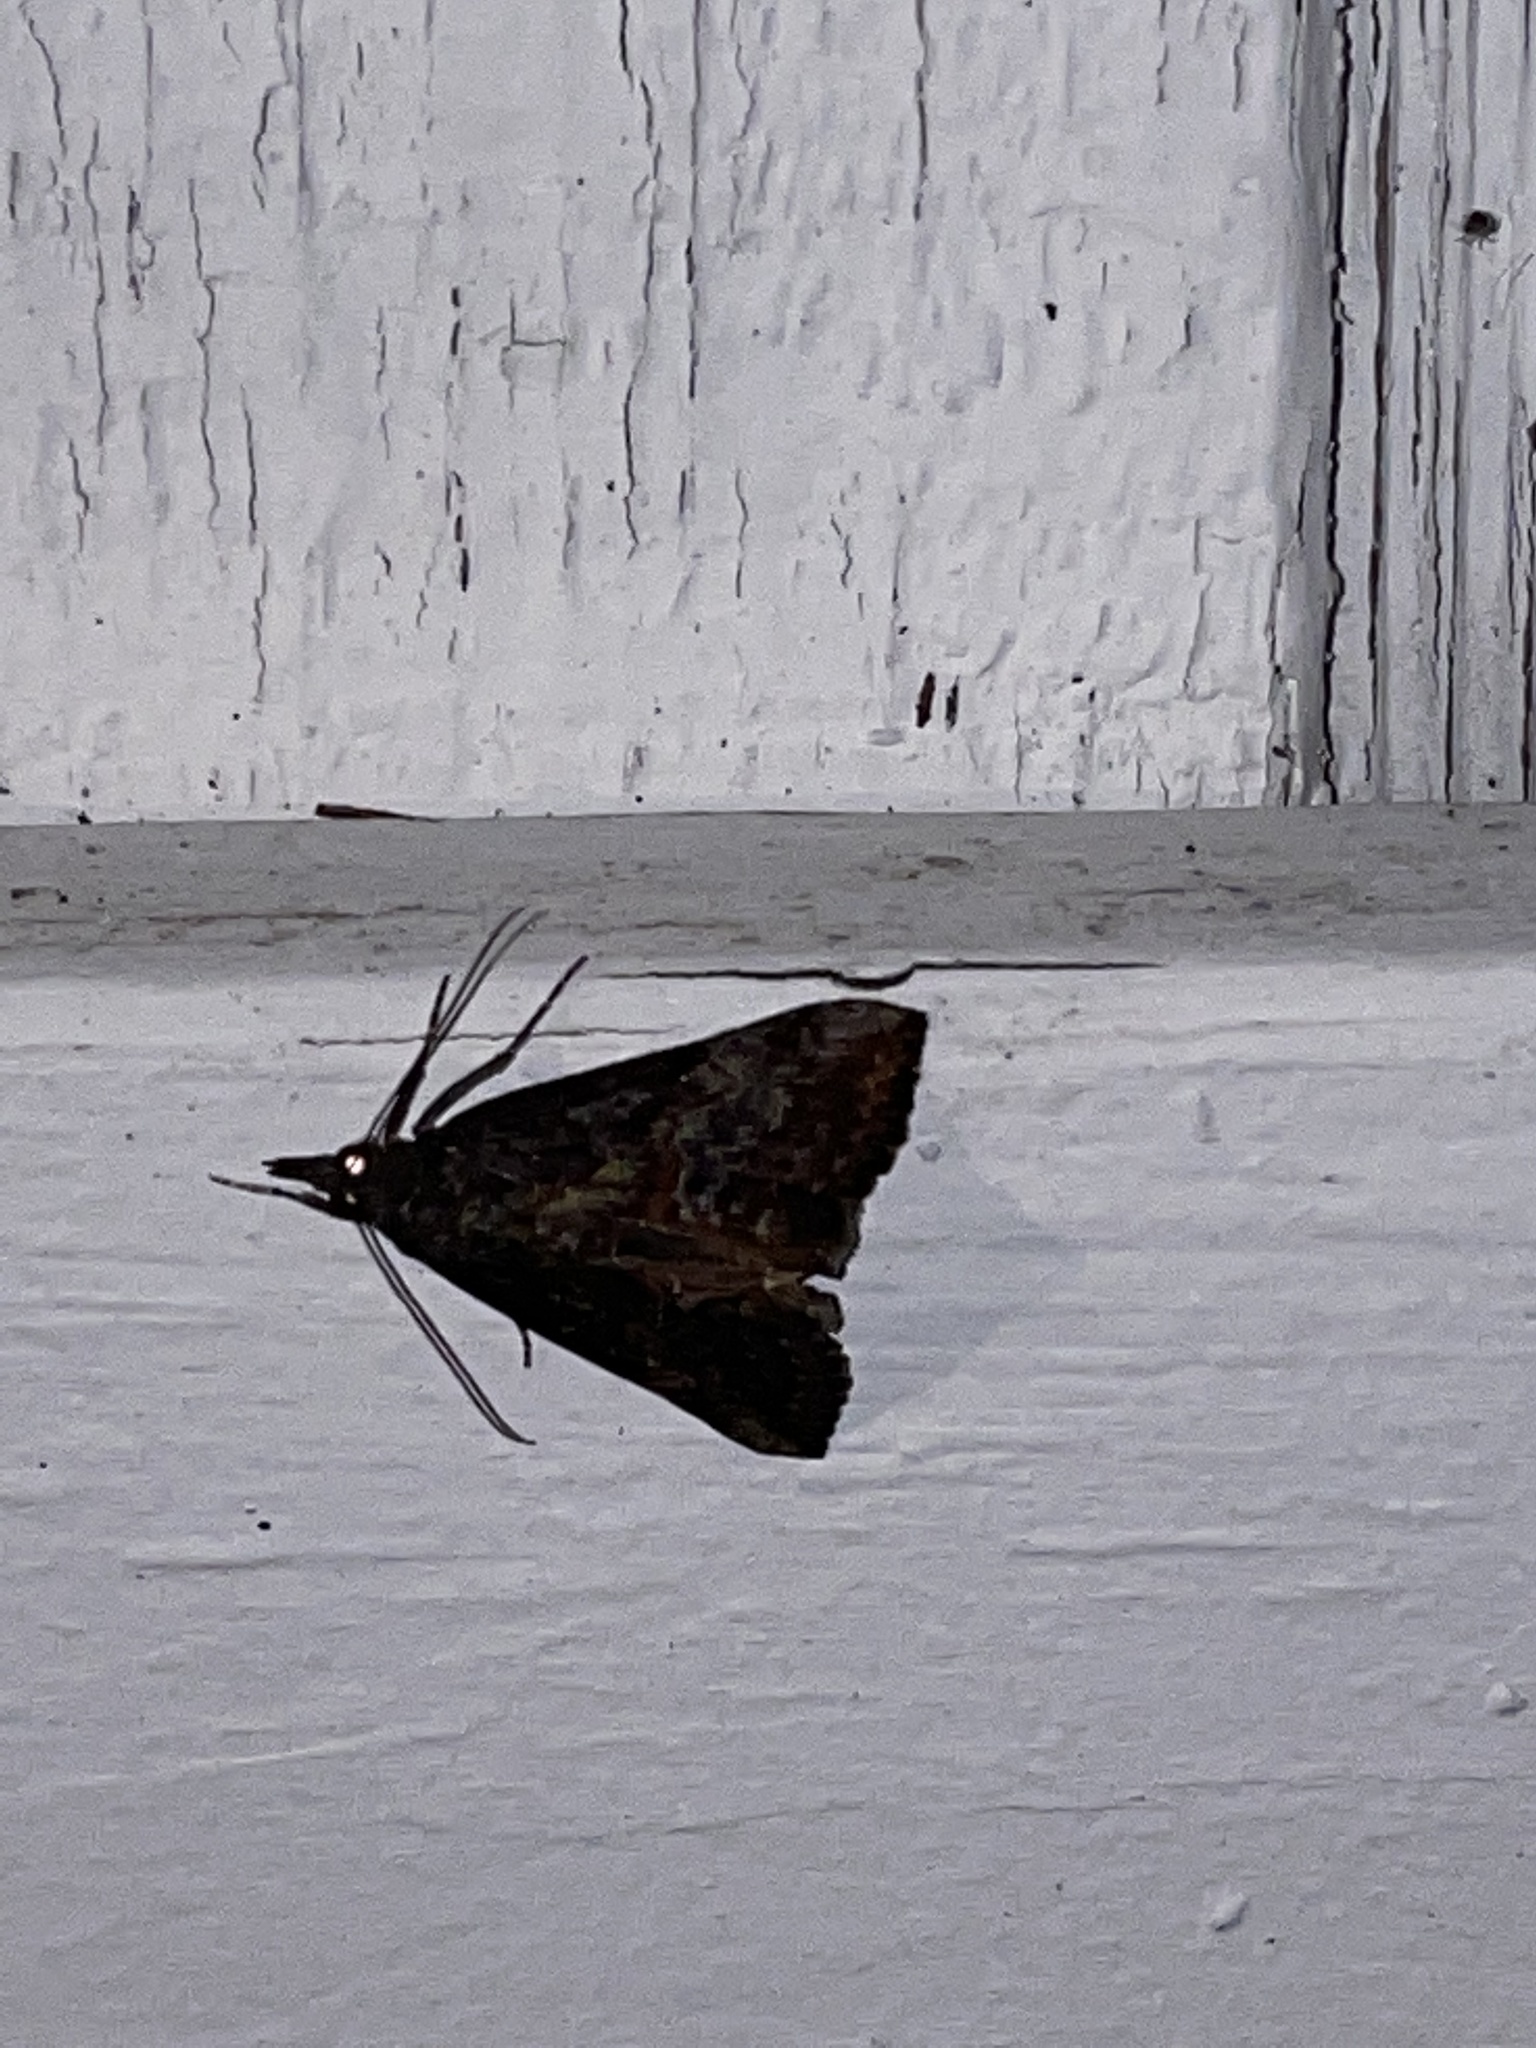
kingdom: Animalia
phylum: Arthropoda
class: Insecta
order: Lepidoptera
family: Erebidae
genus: Hypena
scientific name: Hypena scabra
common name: Green cloverworm
